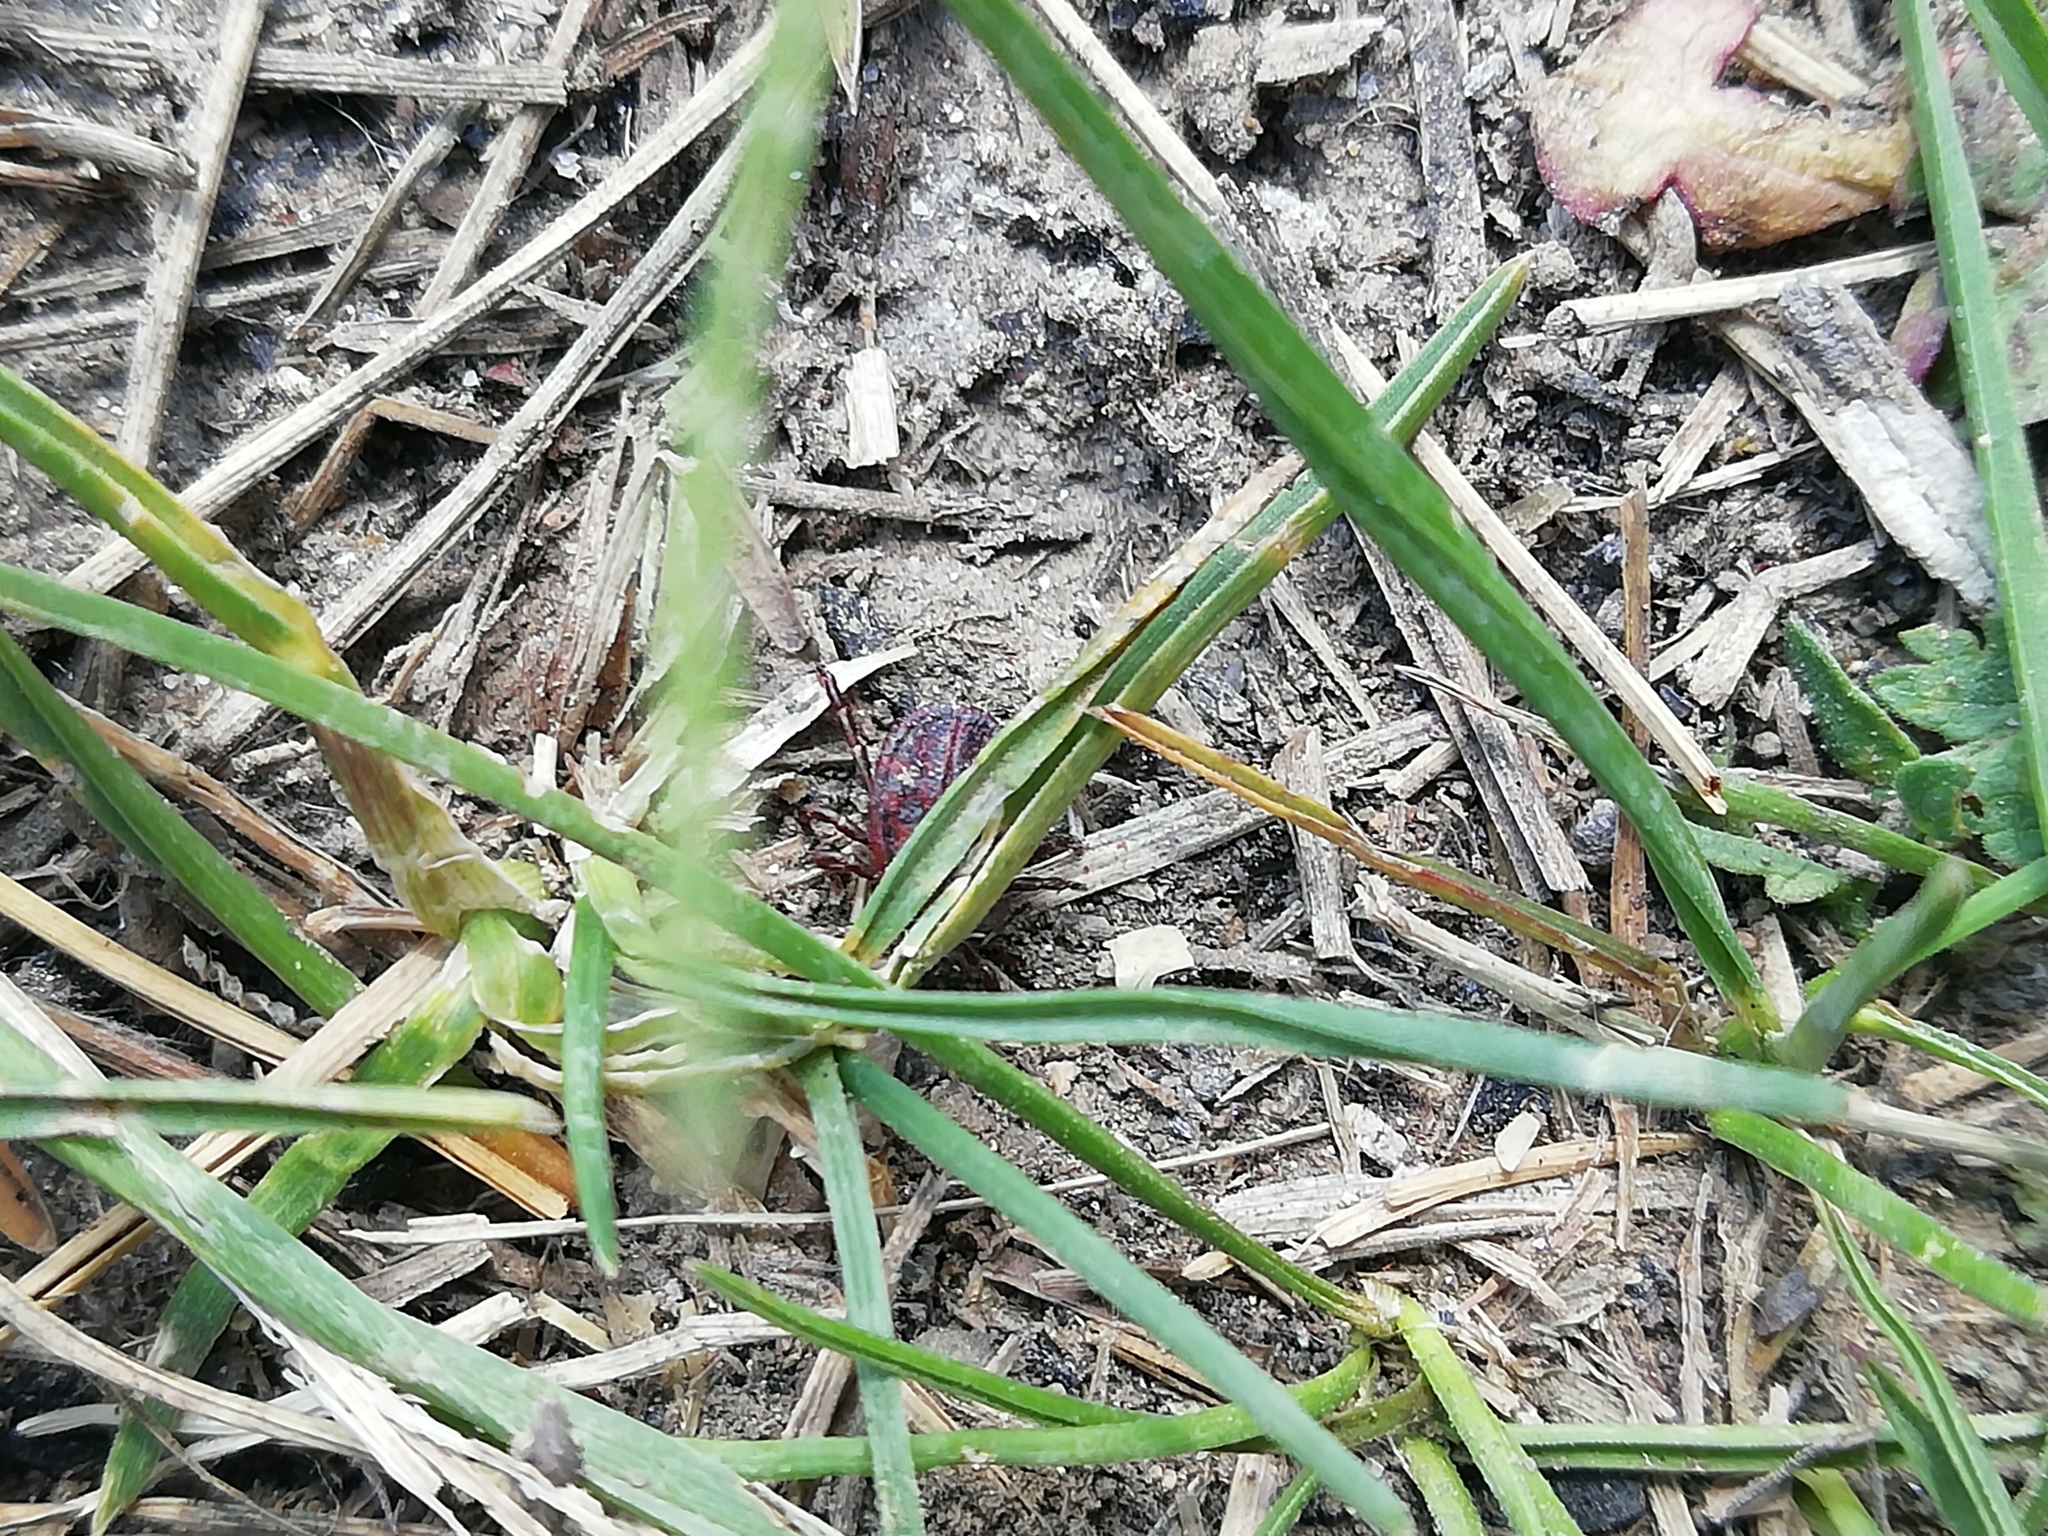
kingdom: Animalia
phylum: Arthropoda
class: Arachnida
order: Ixodida
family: Ixodidae
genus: Dermacentor
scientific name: Dermacentor reticulatus
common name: Ornate cow tick
